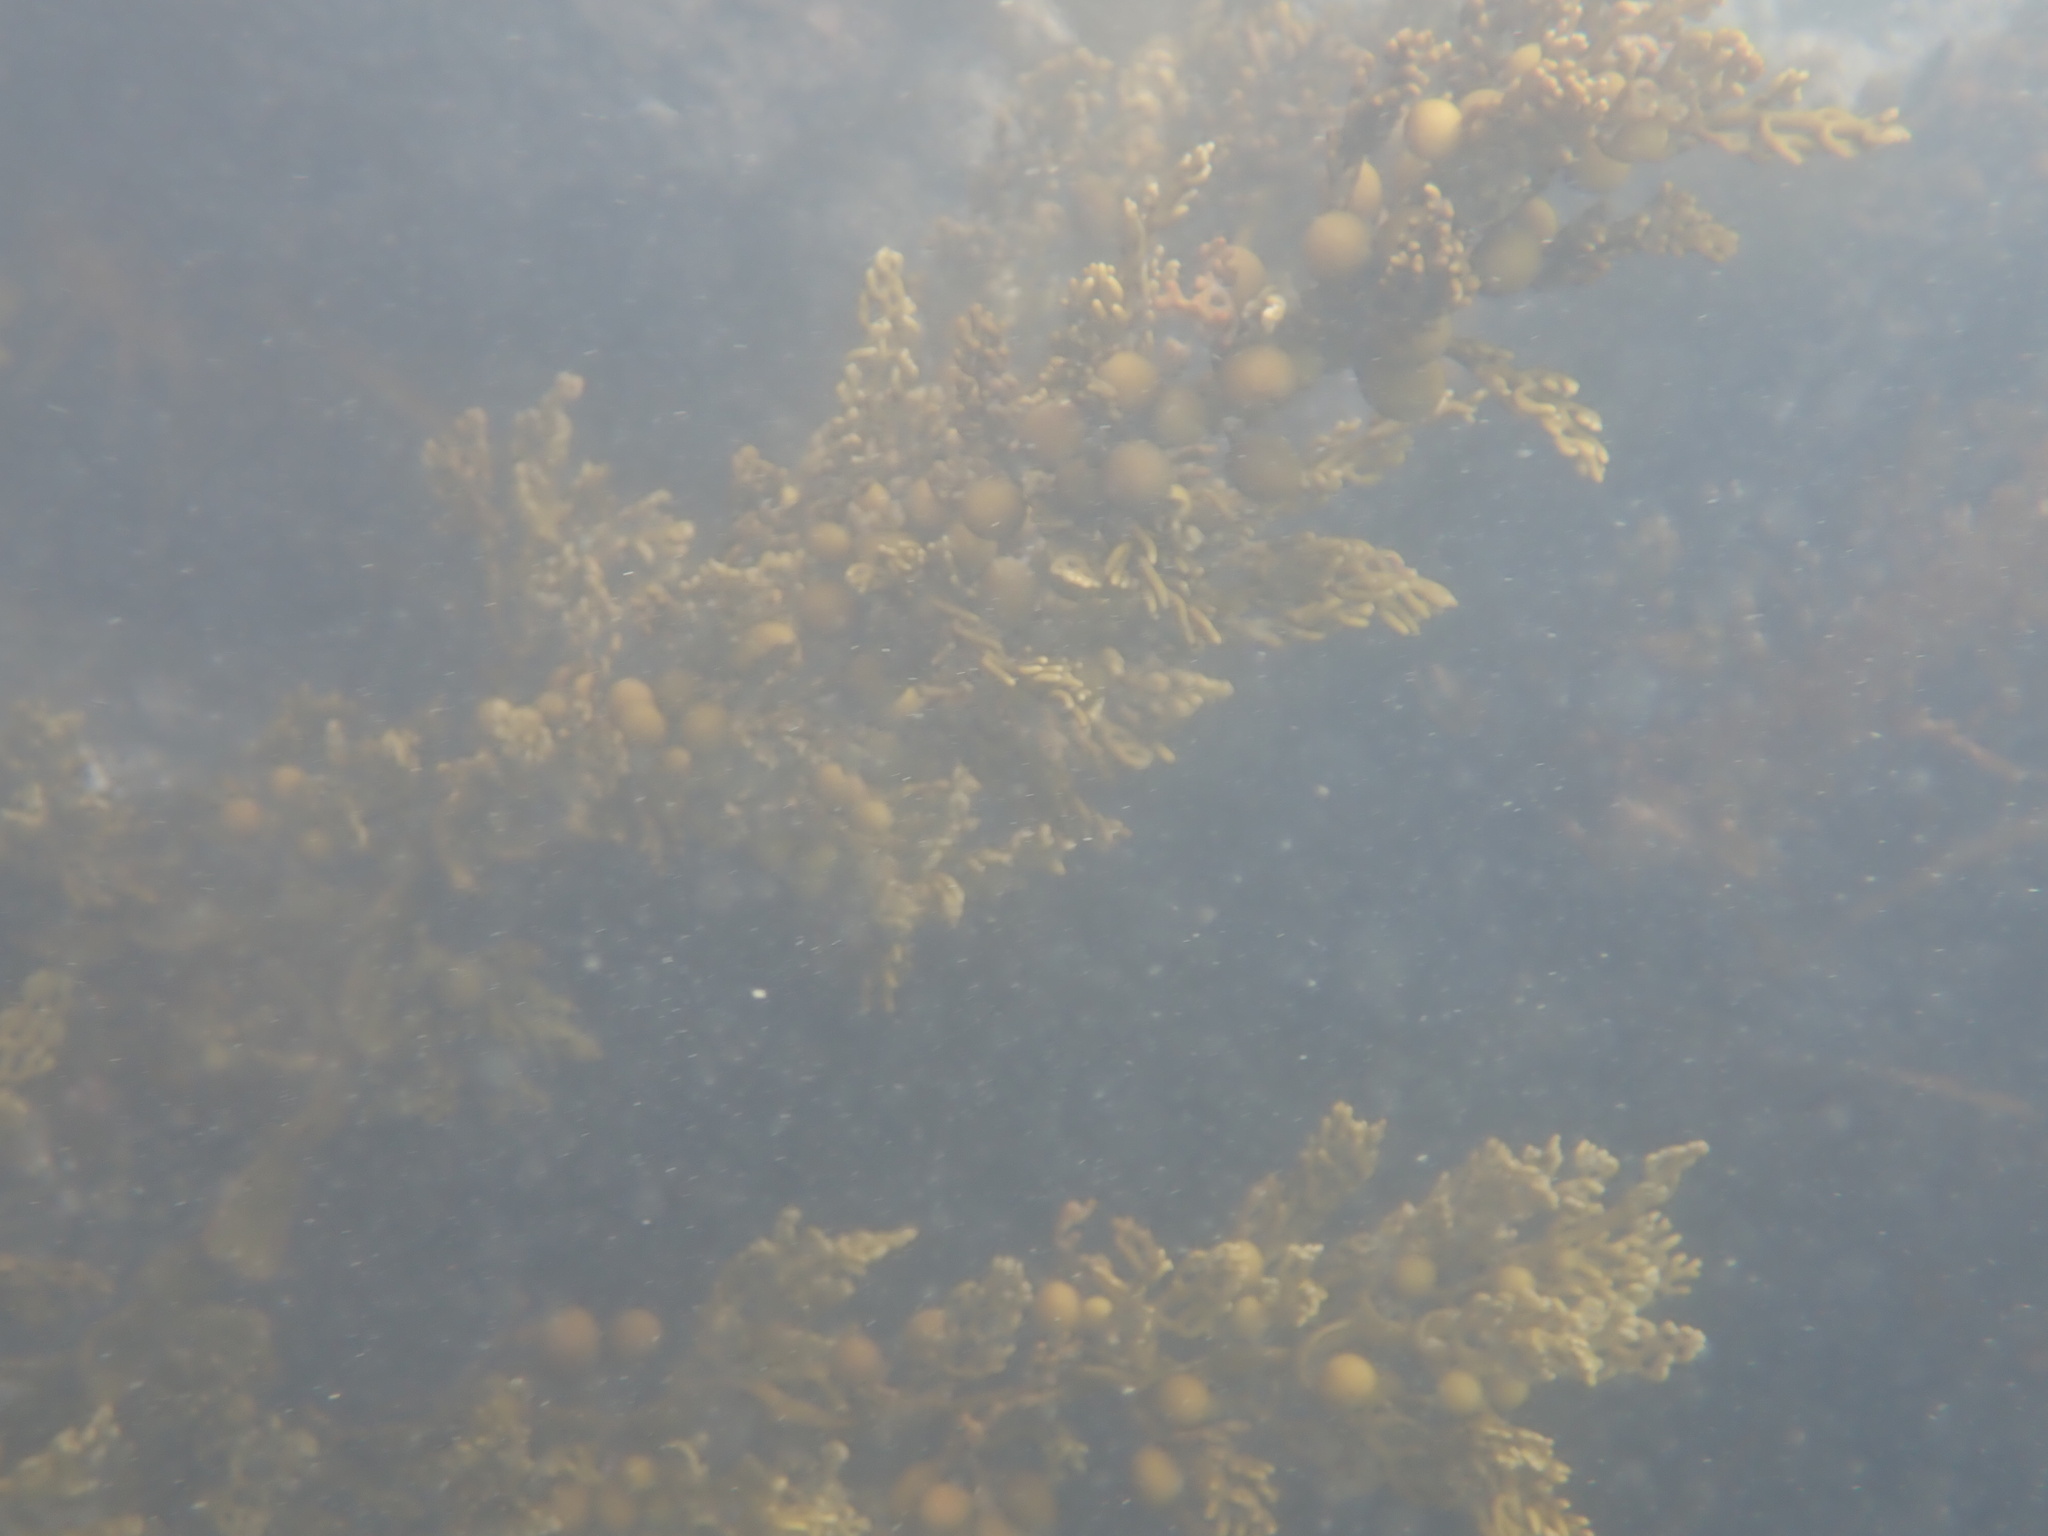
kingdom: Chromista
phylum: Ochrophyta
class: Phaeophyceae
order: Fucales
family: Sargassaceae
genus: Cystophora
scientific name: Cystophora scalaris
